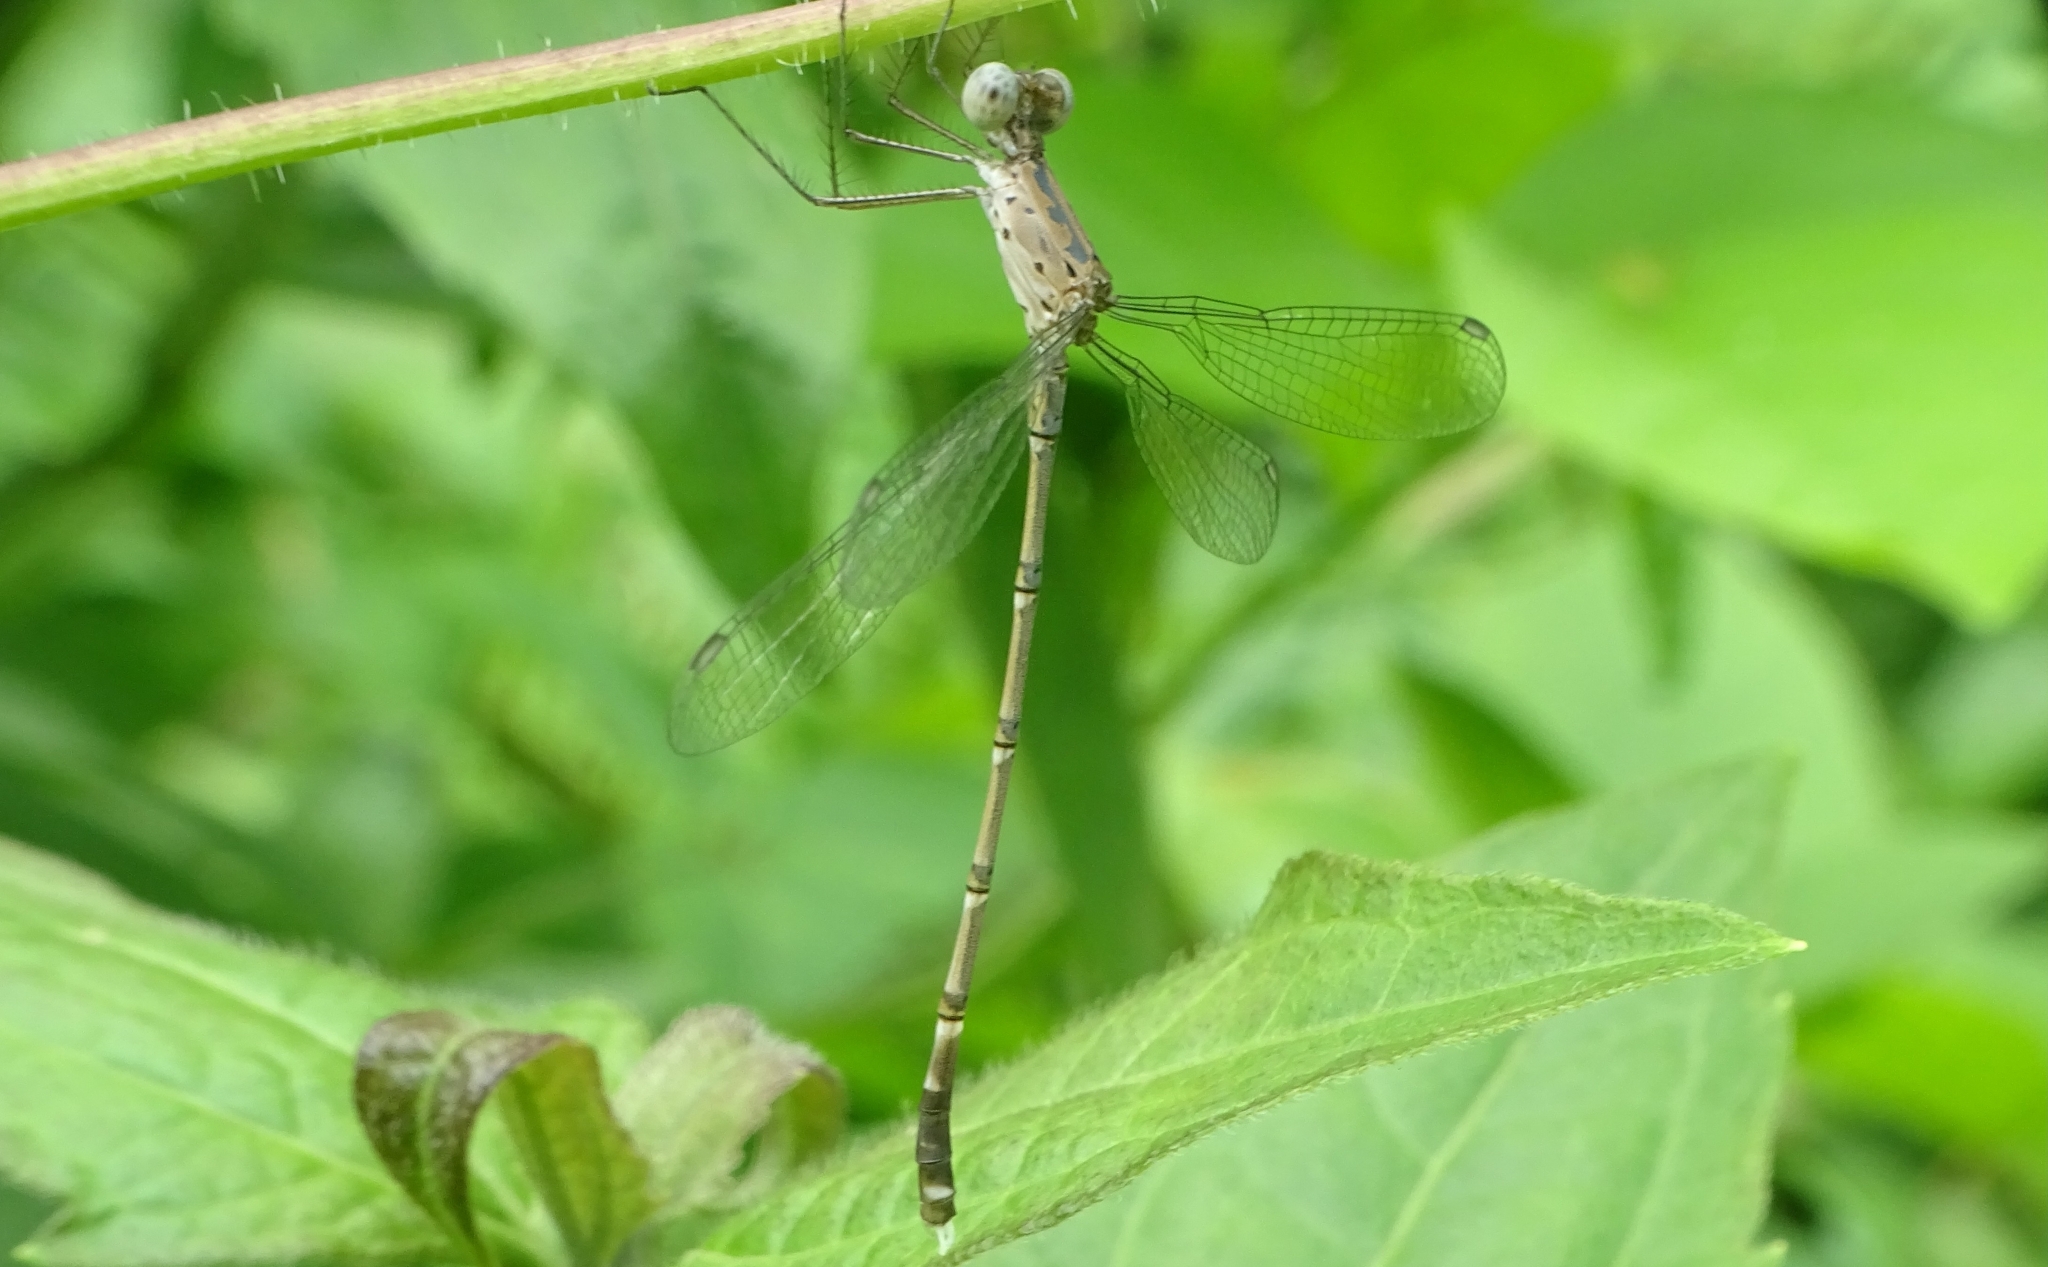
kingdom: Animalia
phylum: Arthropoda
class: Insecta
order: Odonata
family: Lestidae
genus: Lestes
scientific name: Lestes praemorsus
